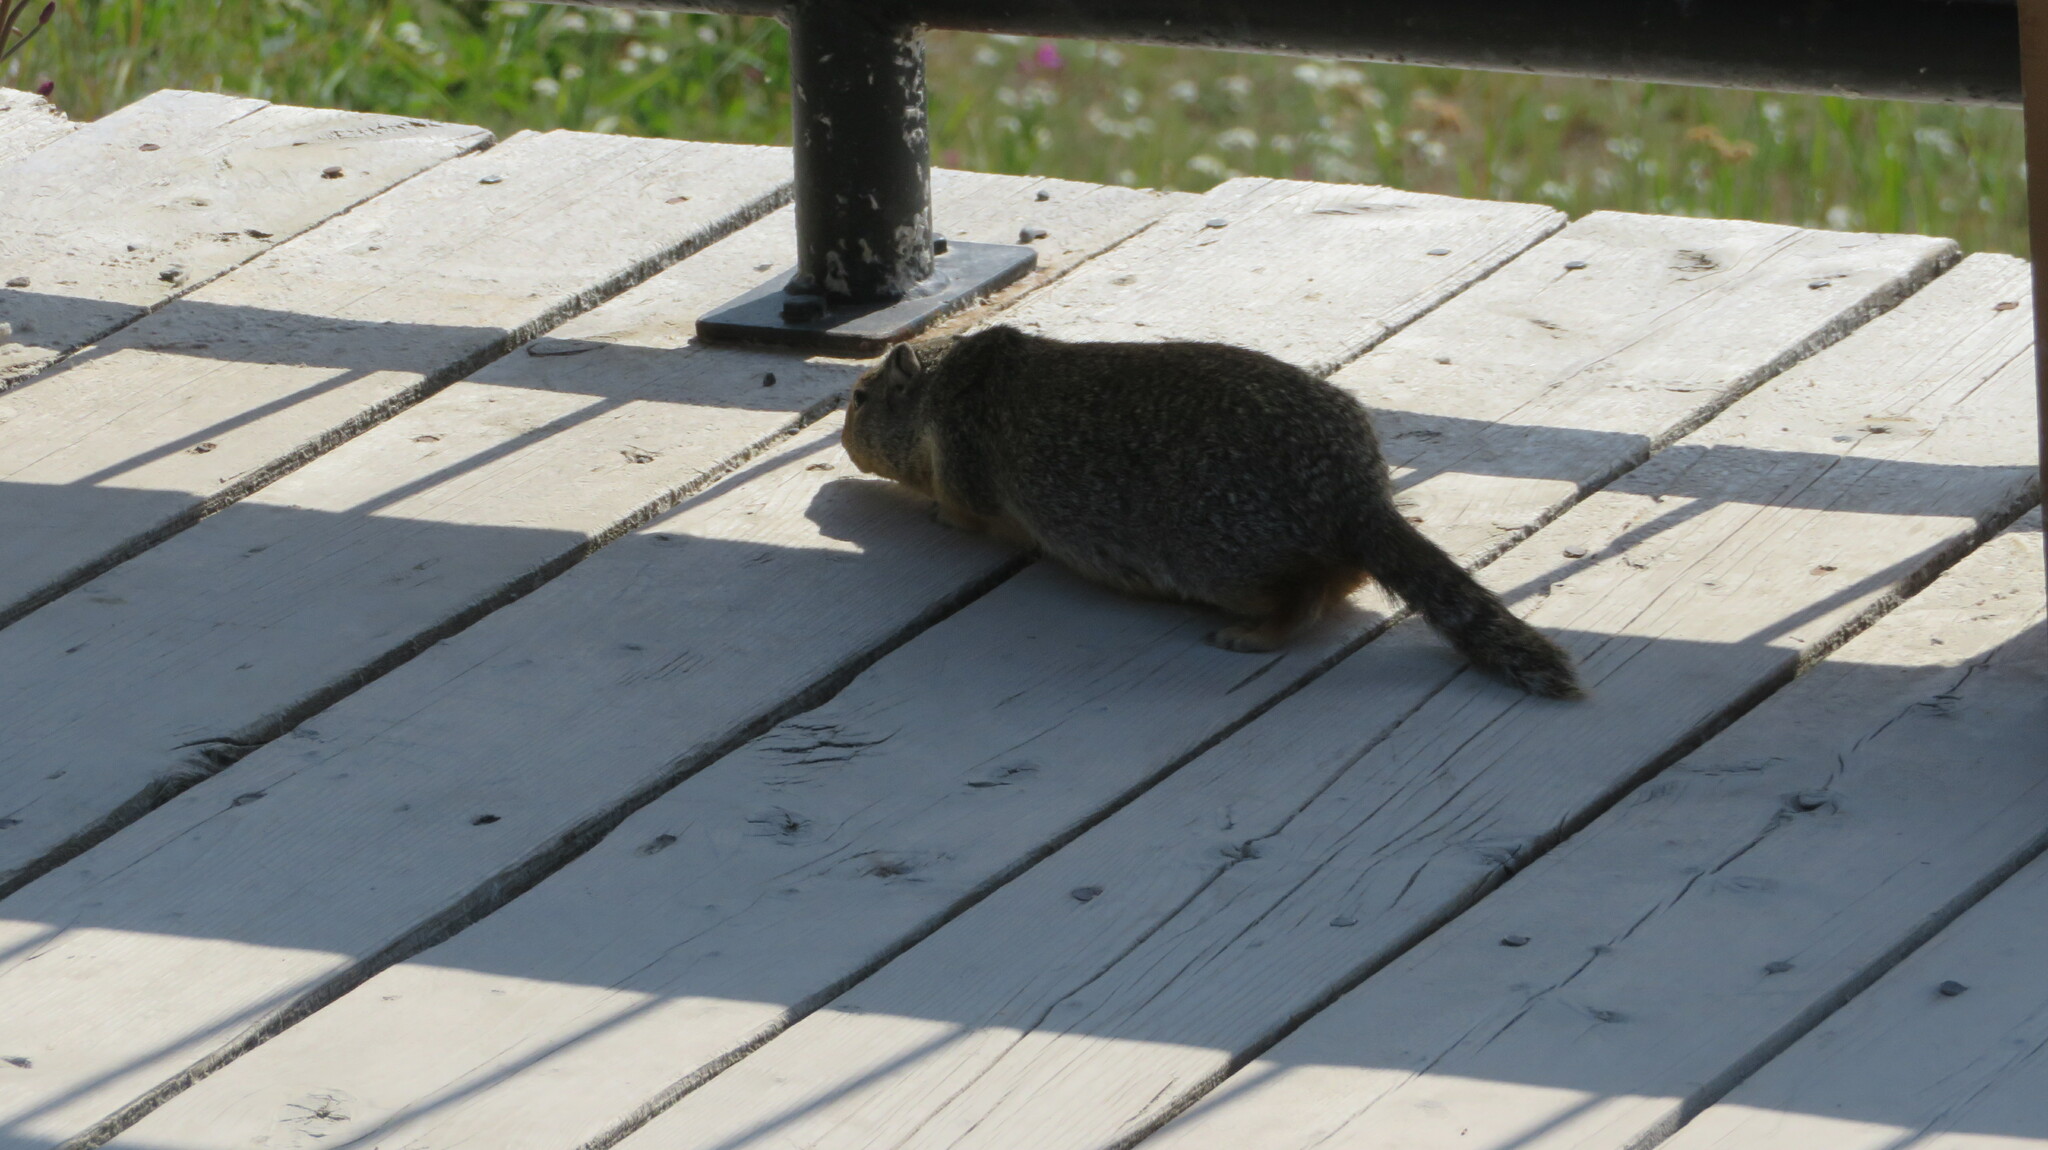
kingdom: Animalia
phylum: Chordata
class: Mammalia
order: Rodentia
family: Sciuridae
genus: Urocitellus
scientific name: Urocitellus columbianus
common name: Columbian ground squirrel
